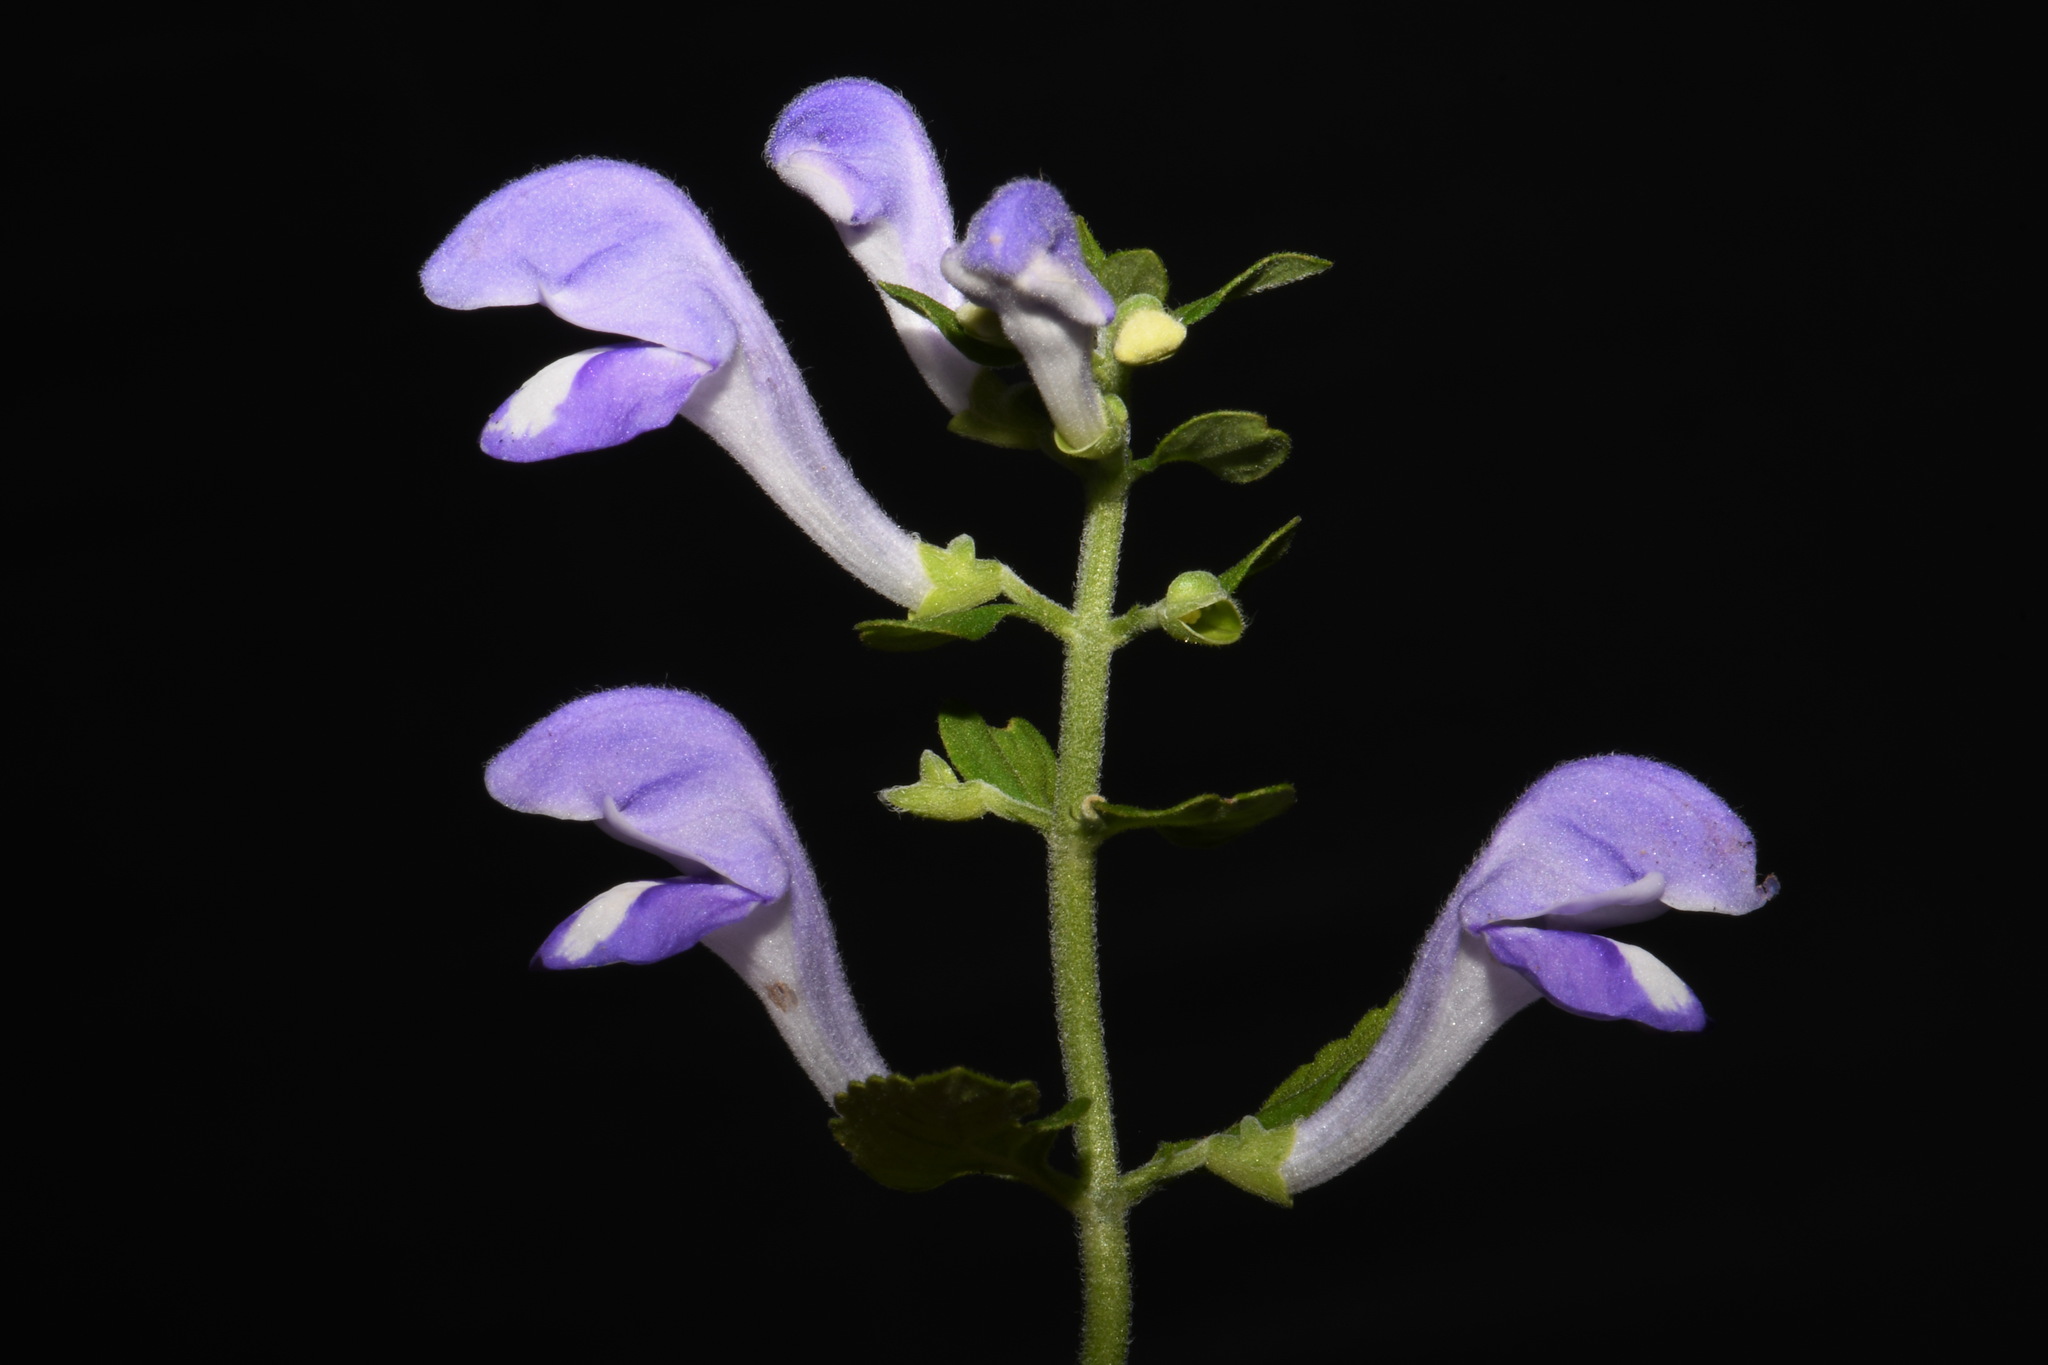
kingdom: Plantae
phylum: Tracheophyta
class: Magnoliopsida
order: Lamiales
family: Lamiaceae
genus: Scutellaria
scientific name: Scutellaria mellichampii
